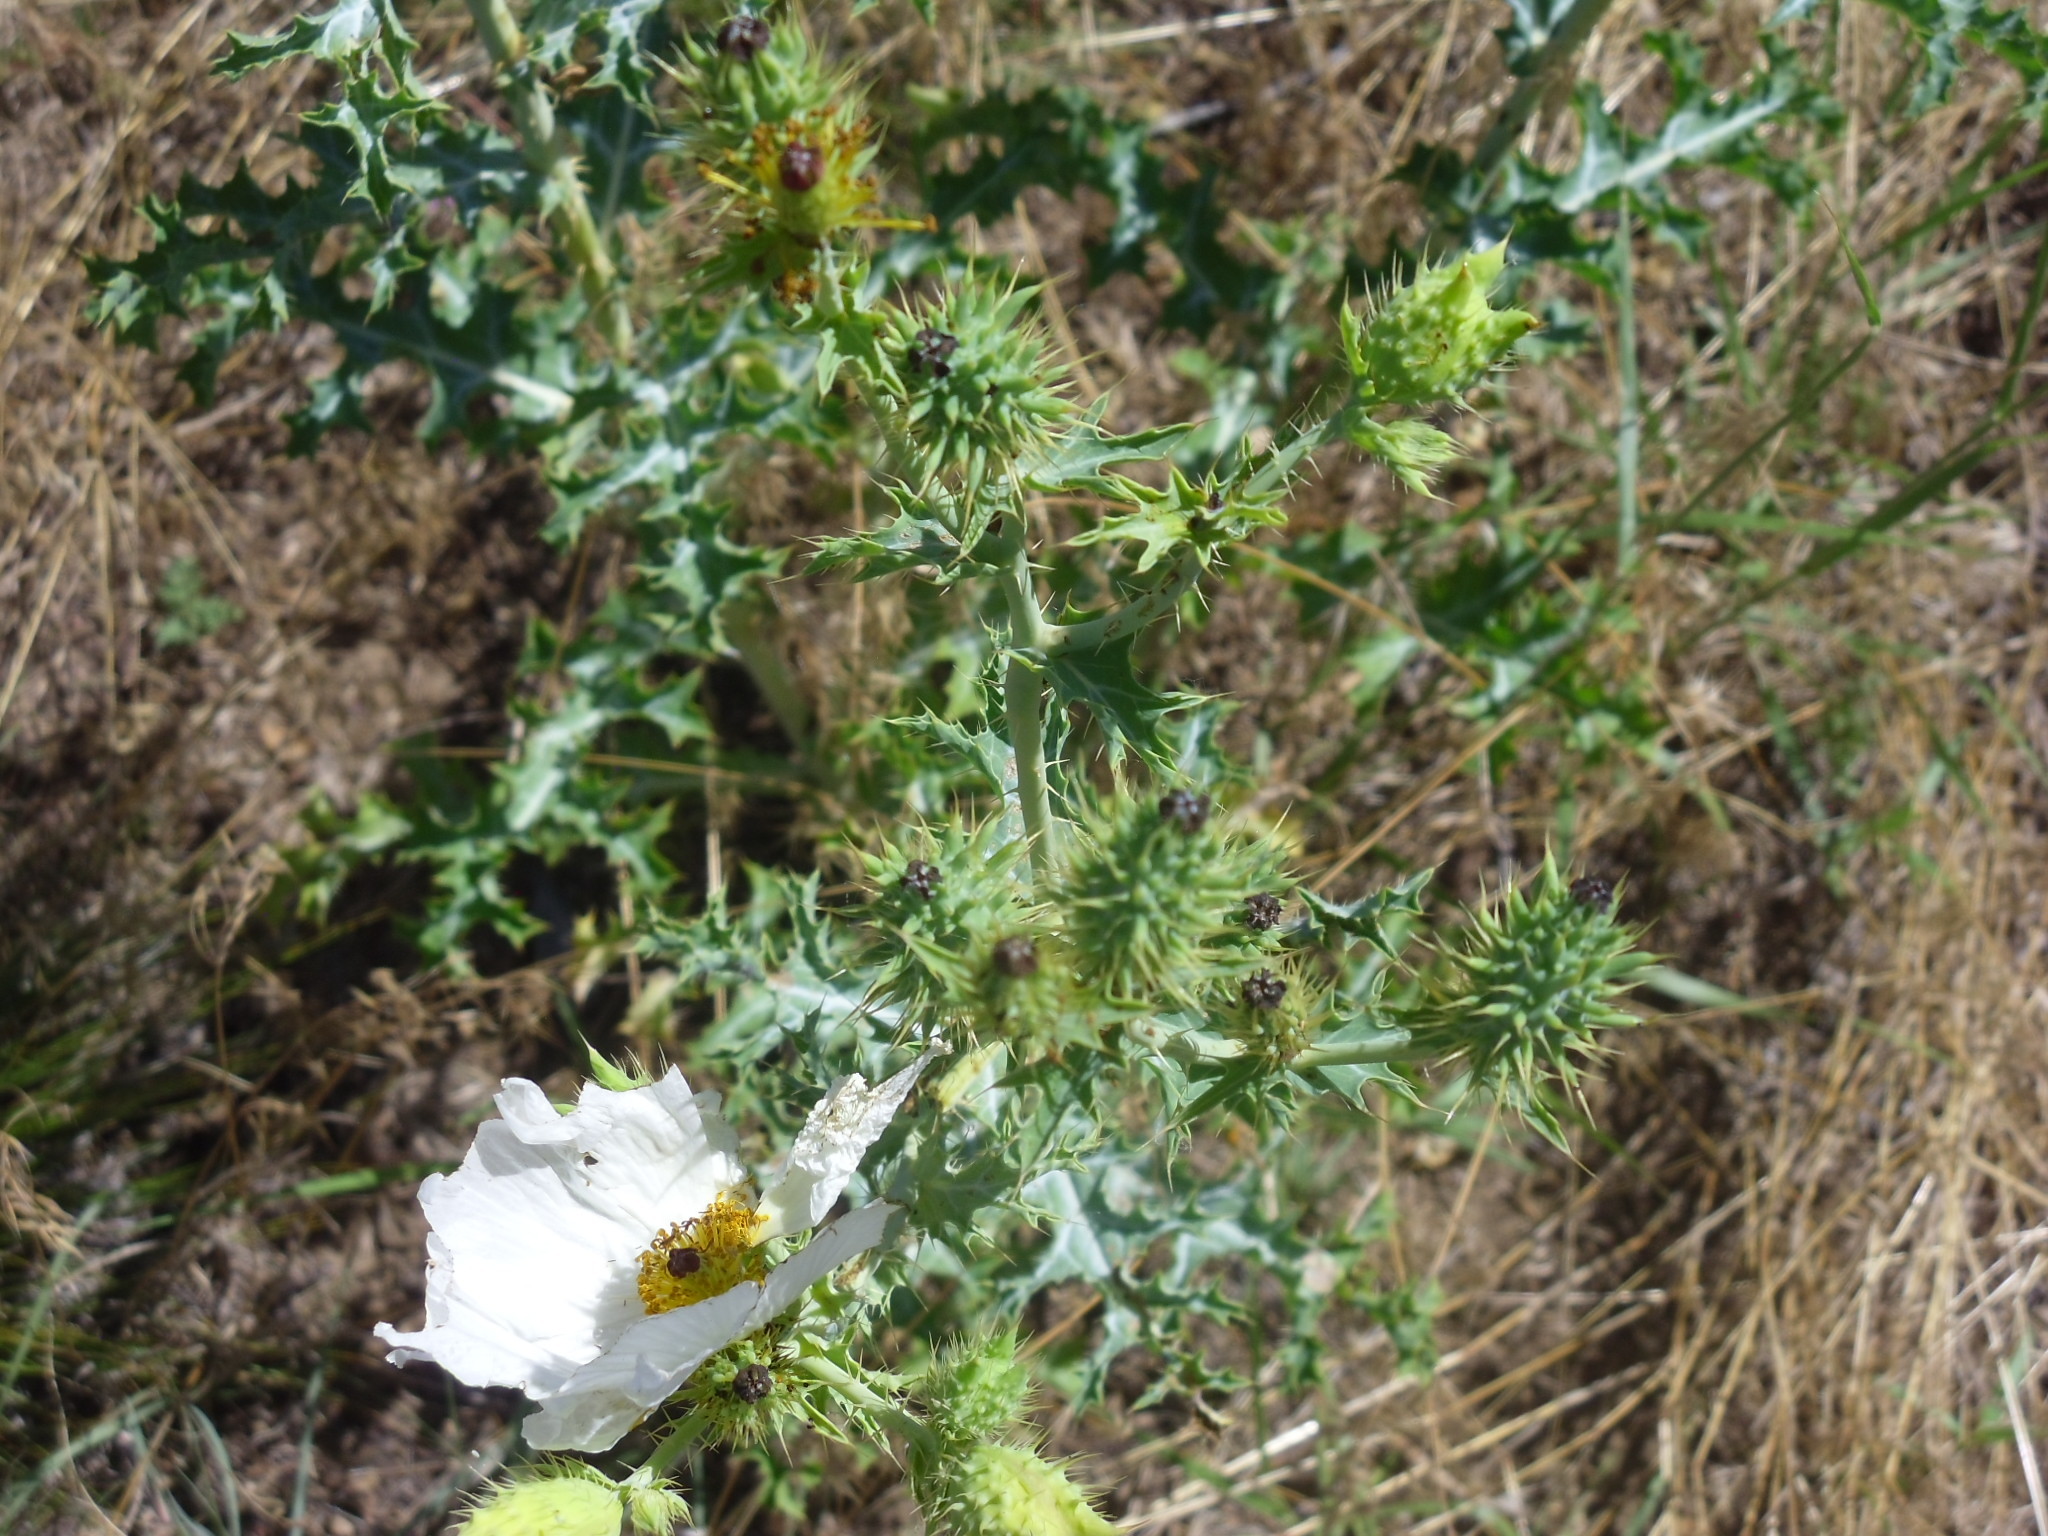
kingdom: Plantae
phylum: Tracheophyta
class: Magnoliopsida
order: Ranunculales
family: Papaveraceae
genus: Argemone
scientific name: Argemone polyanthemos
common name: Plains prickly-poppy
